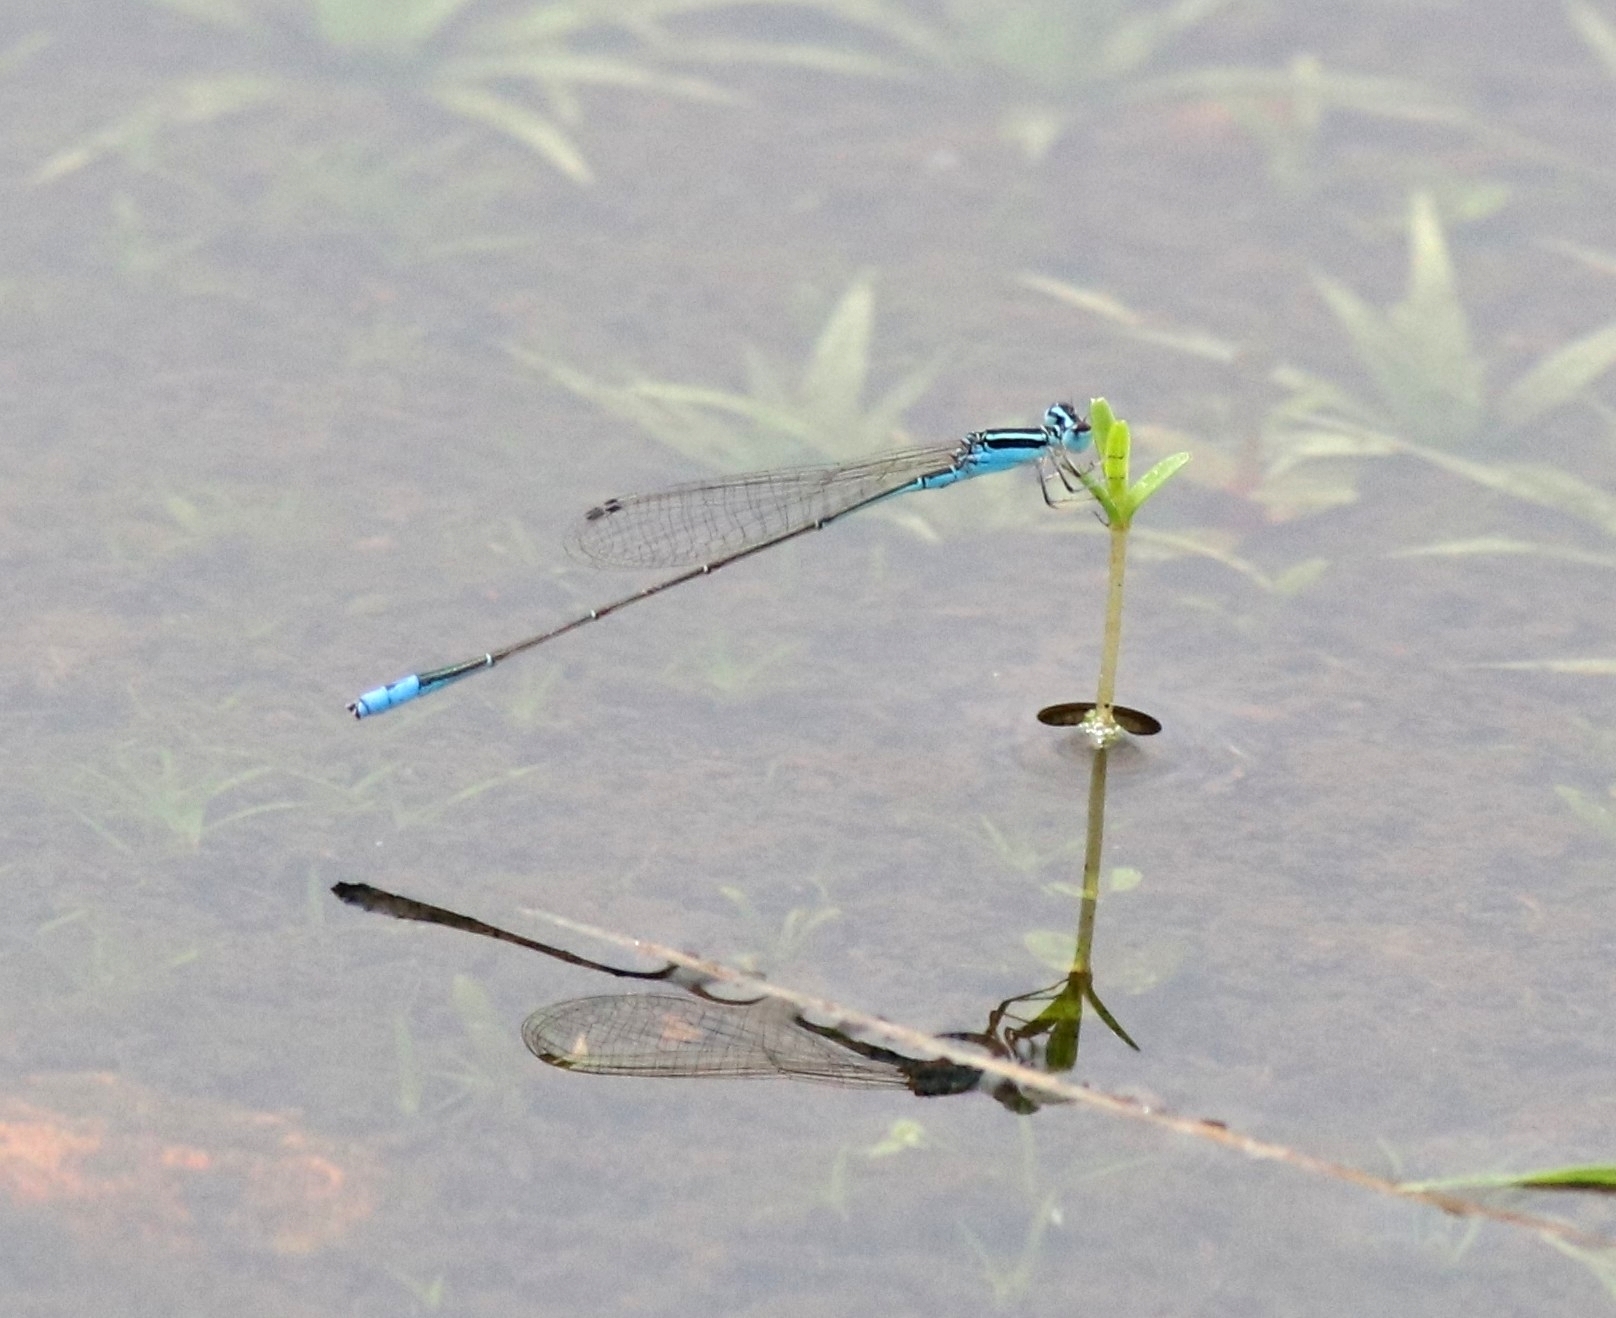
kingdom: Animalia
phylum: Arthropoda
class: Insecta
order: Odonata
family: Coenagrionidae
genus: Aciagrion
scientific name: Aciagrion occidentale
